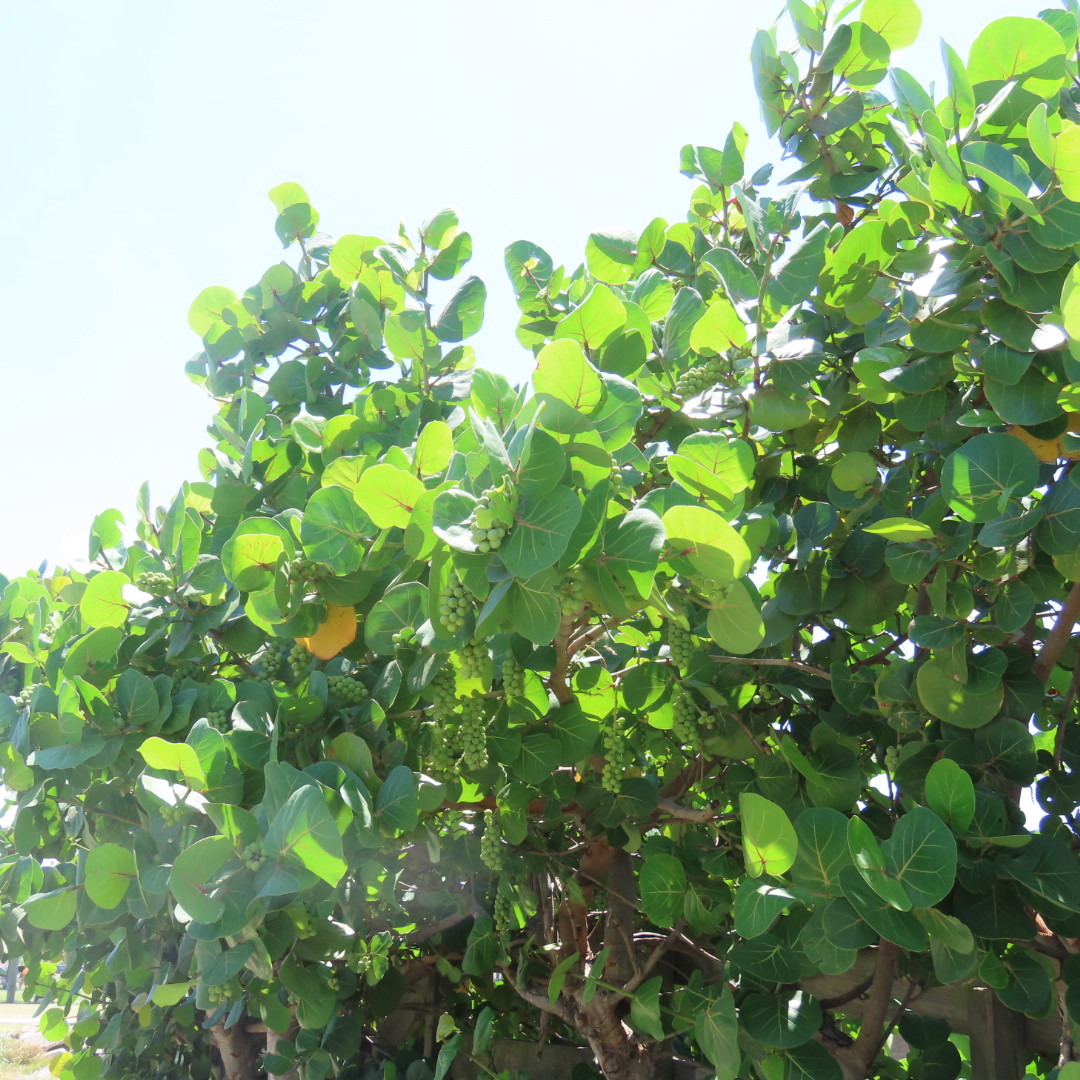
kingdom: Plantae
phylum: Tracheophyta
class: Magnoliopsida
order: Caryophyllales
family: Polygonaceae
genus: Coccoloba
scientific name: Coccoloba uvifera
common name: Seagrape
